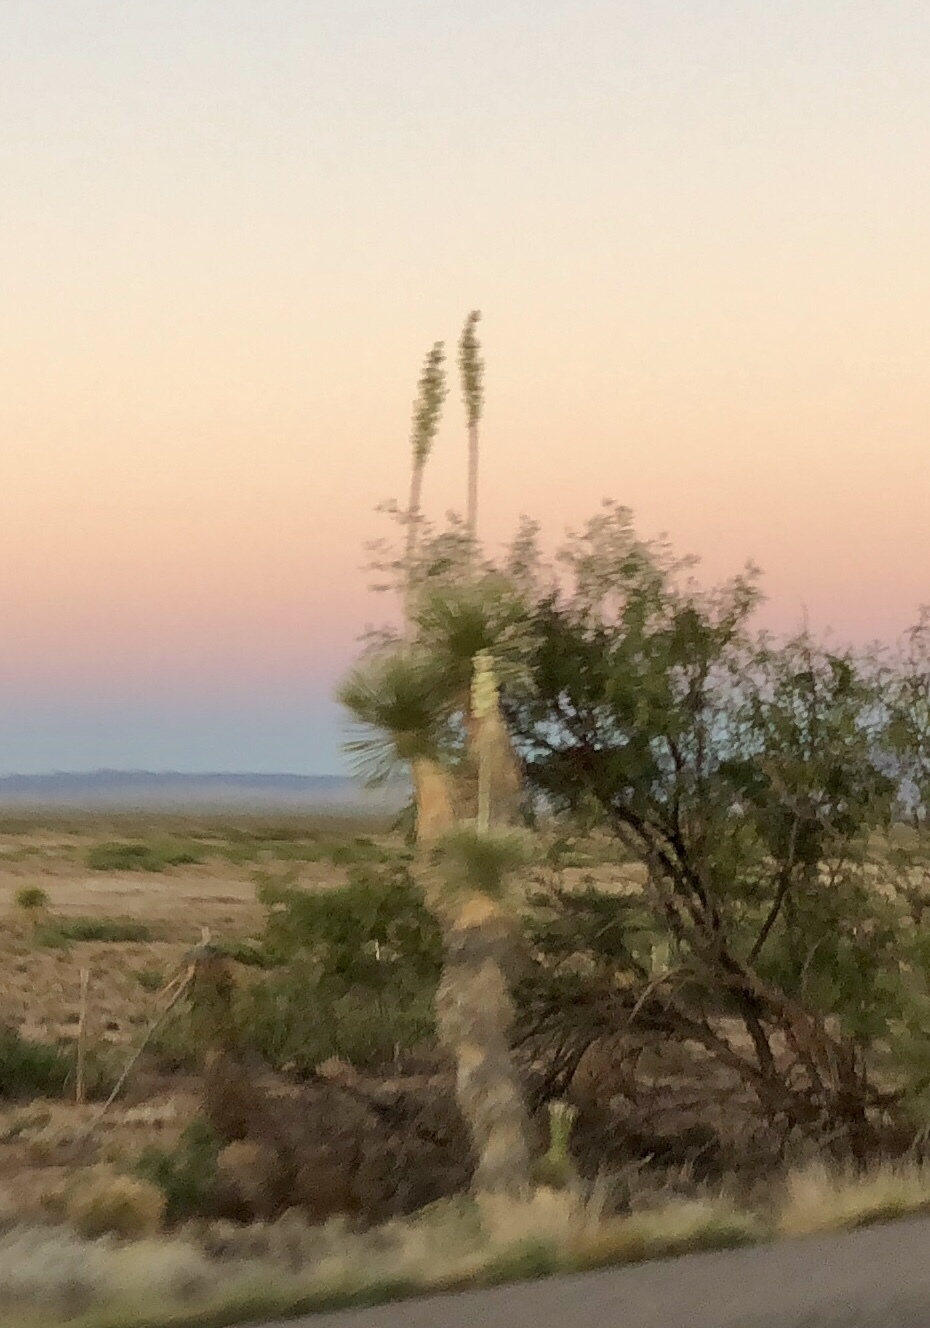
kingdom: Plantae
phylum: Tracheophyta
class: Liliopsida
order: Asparagales
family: Asparagaceae
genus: Yucca
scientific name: Yucca elata
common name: Palmella
